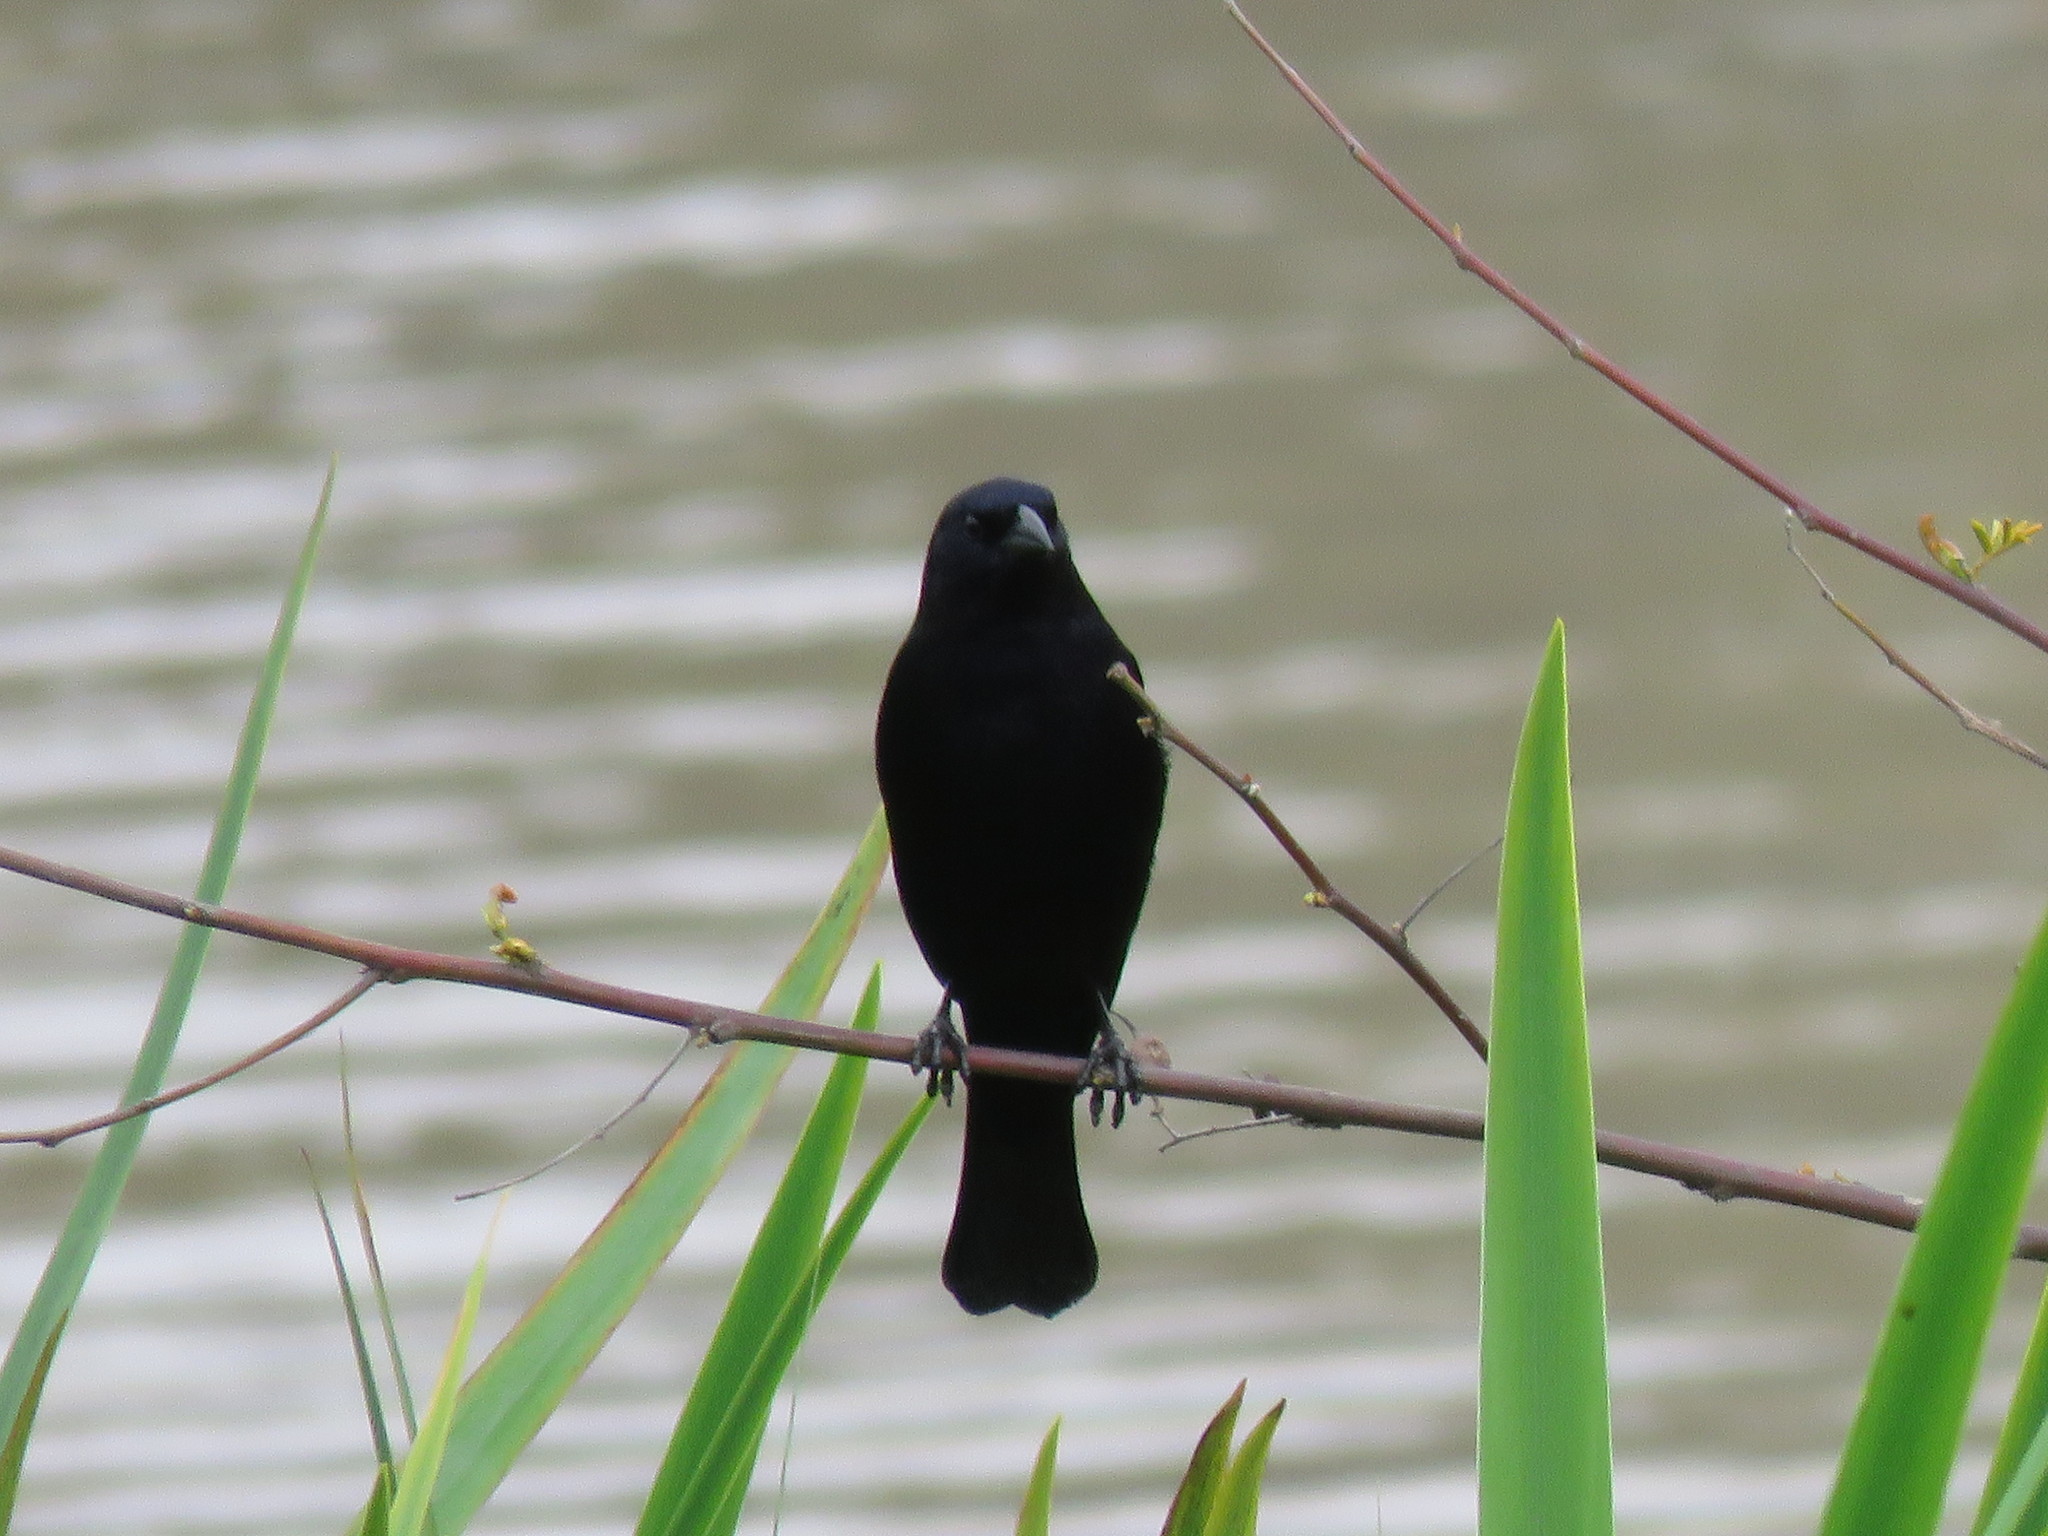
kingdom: Animalia
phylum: Chordata
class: Aves
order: Passeriformes
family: Icteridae
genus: Molothrus
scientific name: Molothrus bonariensis
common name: Shiny cowbird
